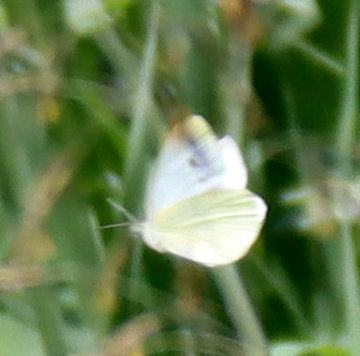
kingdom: Animalia
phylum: Arthropoda
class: Insecta
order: Lepidoptera
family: Pieridae
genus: Pieris
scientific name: Pieris rapae
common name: Small white
